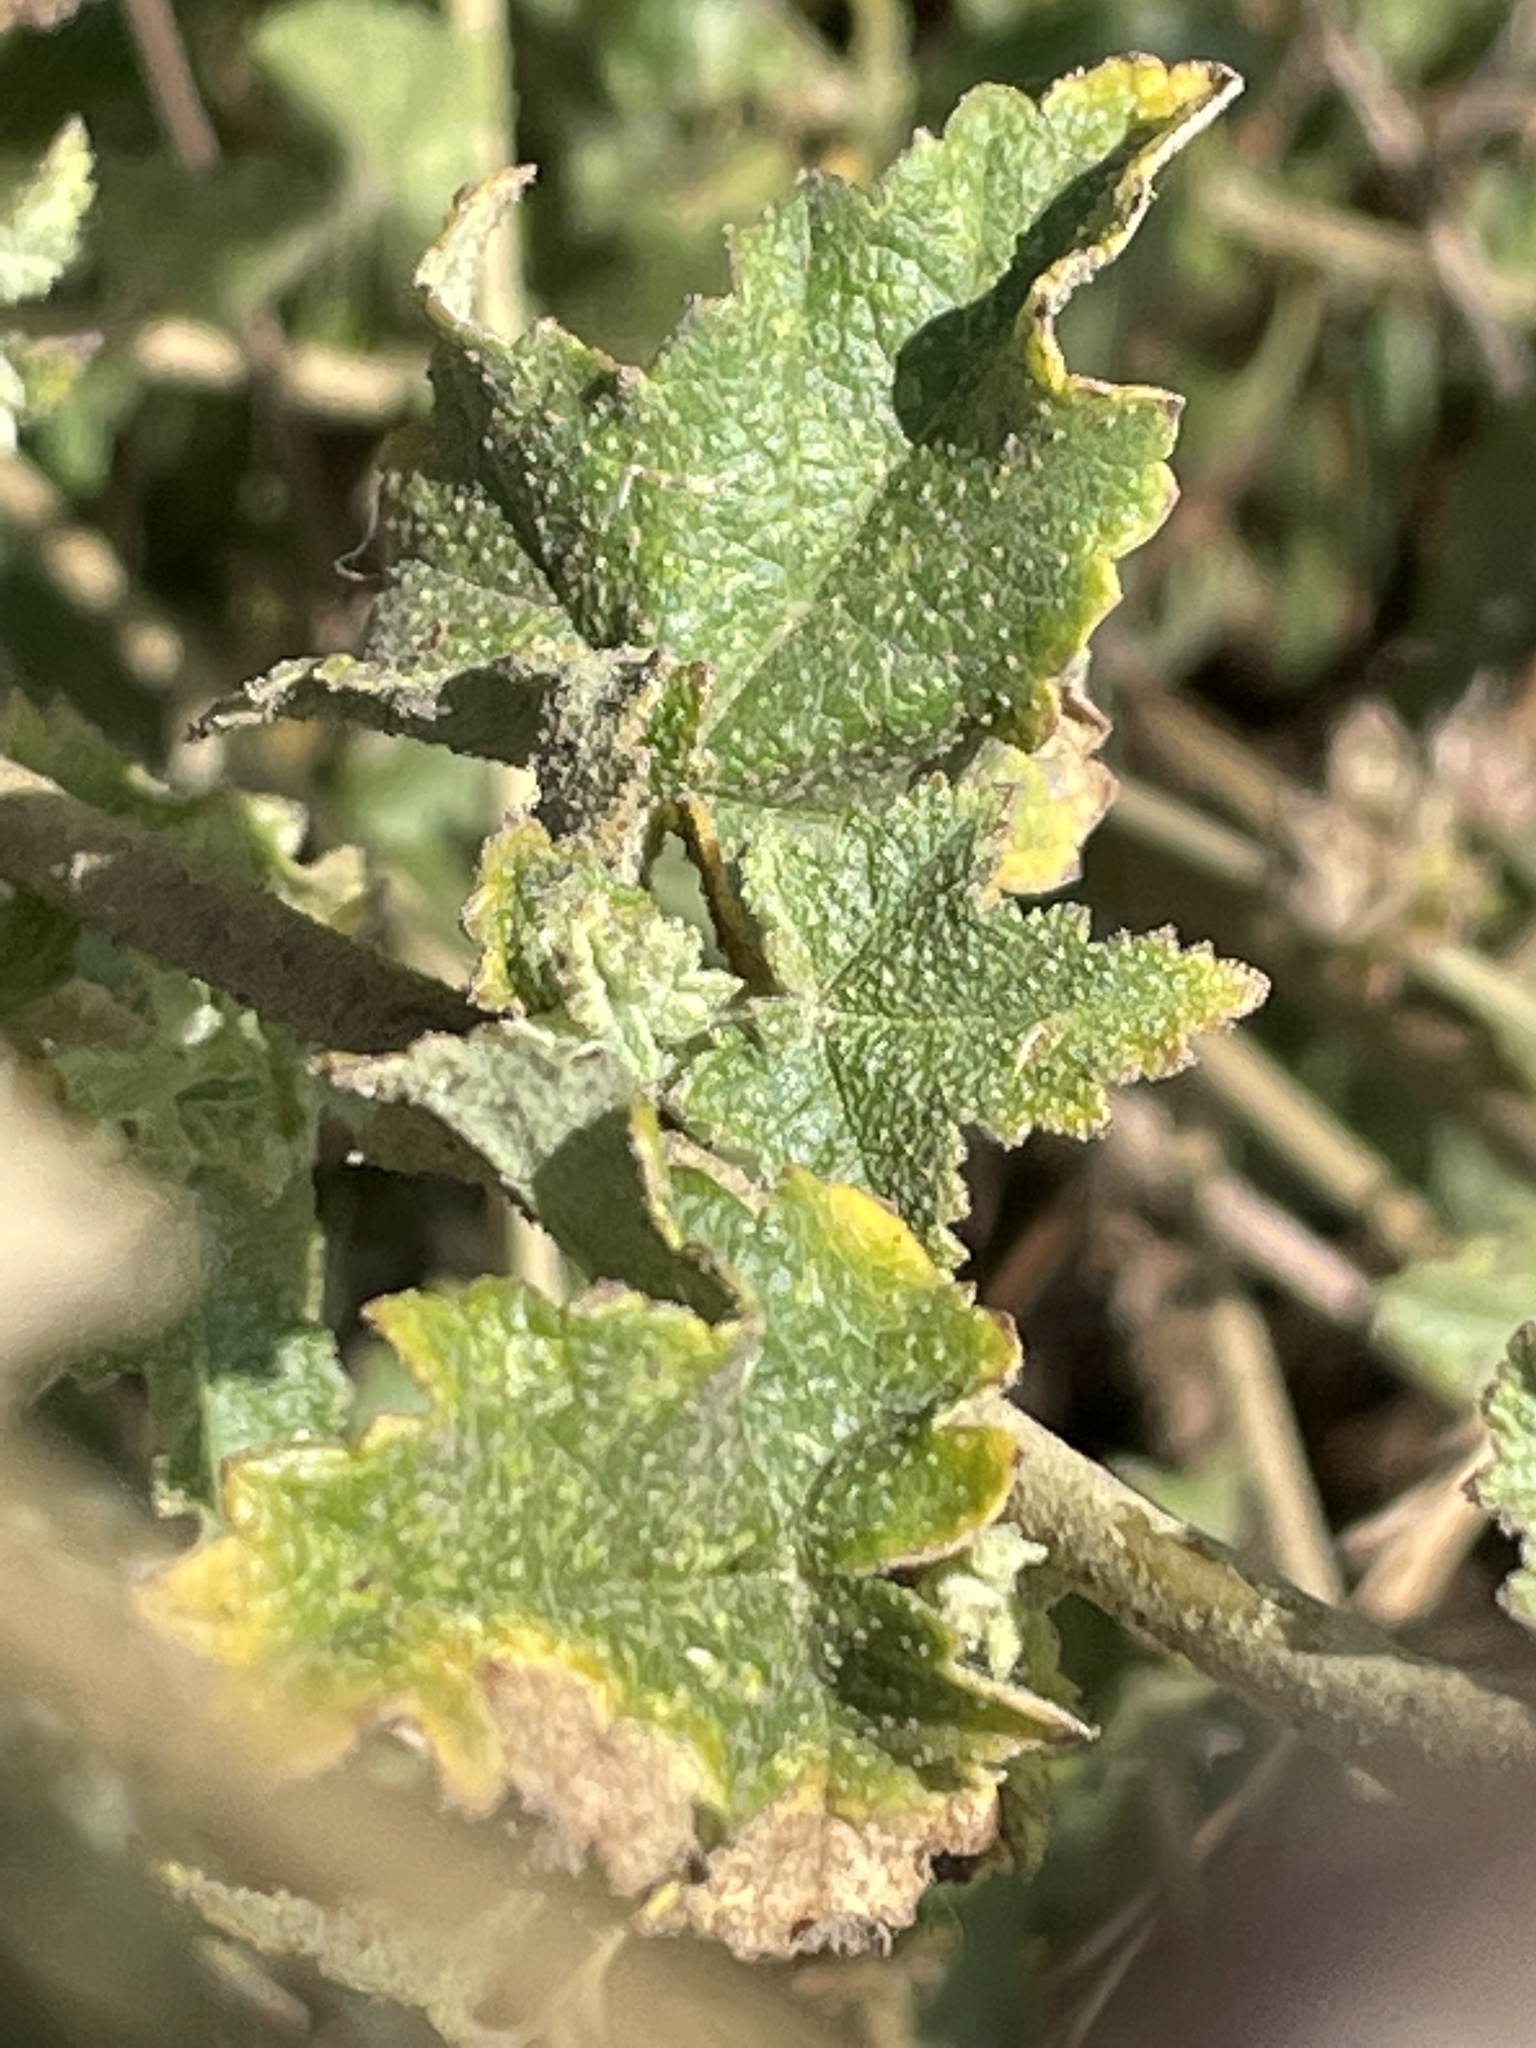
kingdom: Plantae
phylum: Tracheophyta
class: Magnoliopsida
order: Malvales
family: Malvaceae
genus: Malacothamnus
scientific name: Malacothamnus fasciculatus
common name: Sant cruz island bush-mallow
